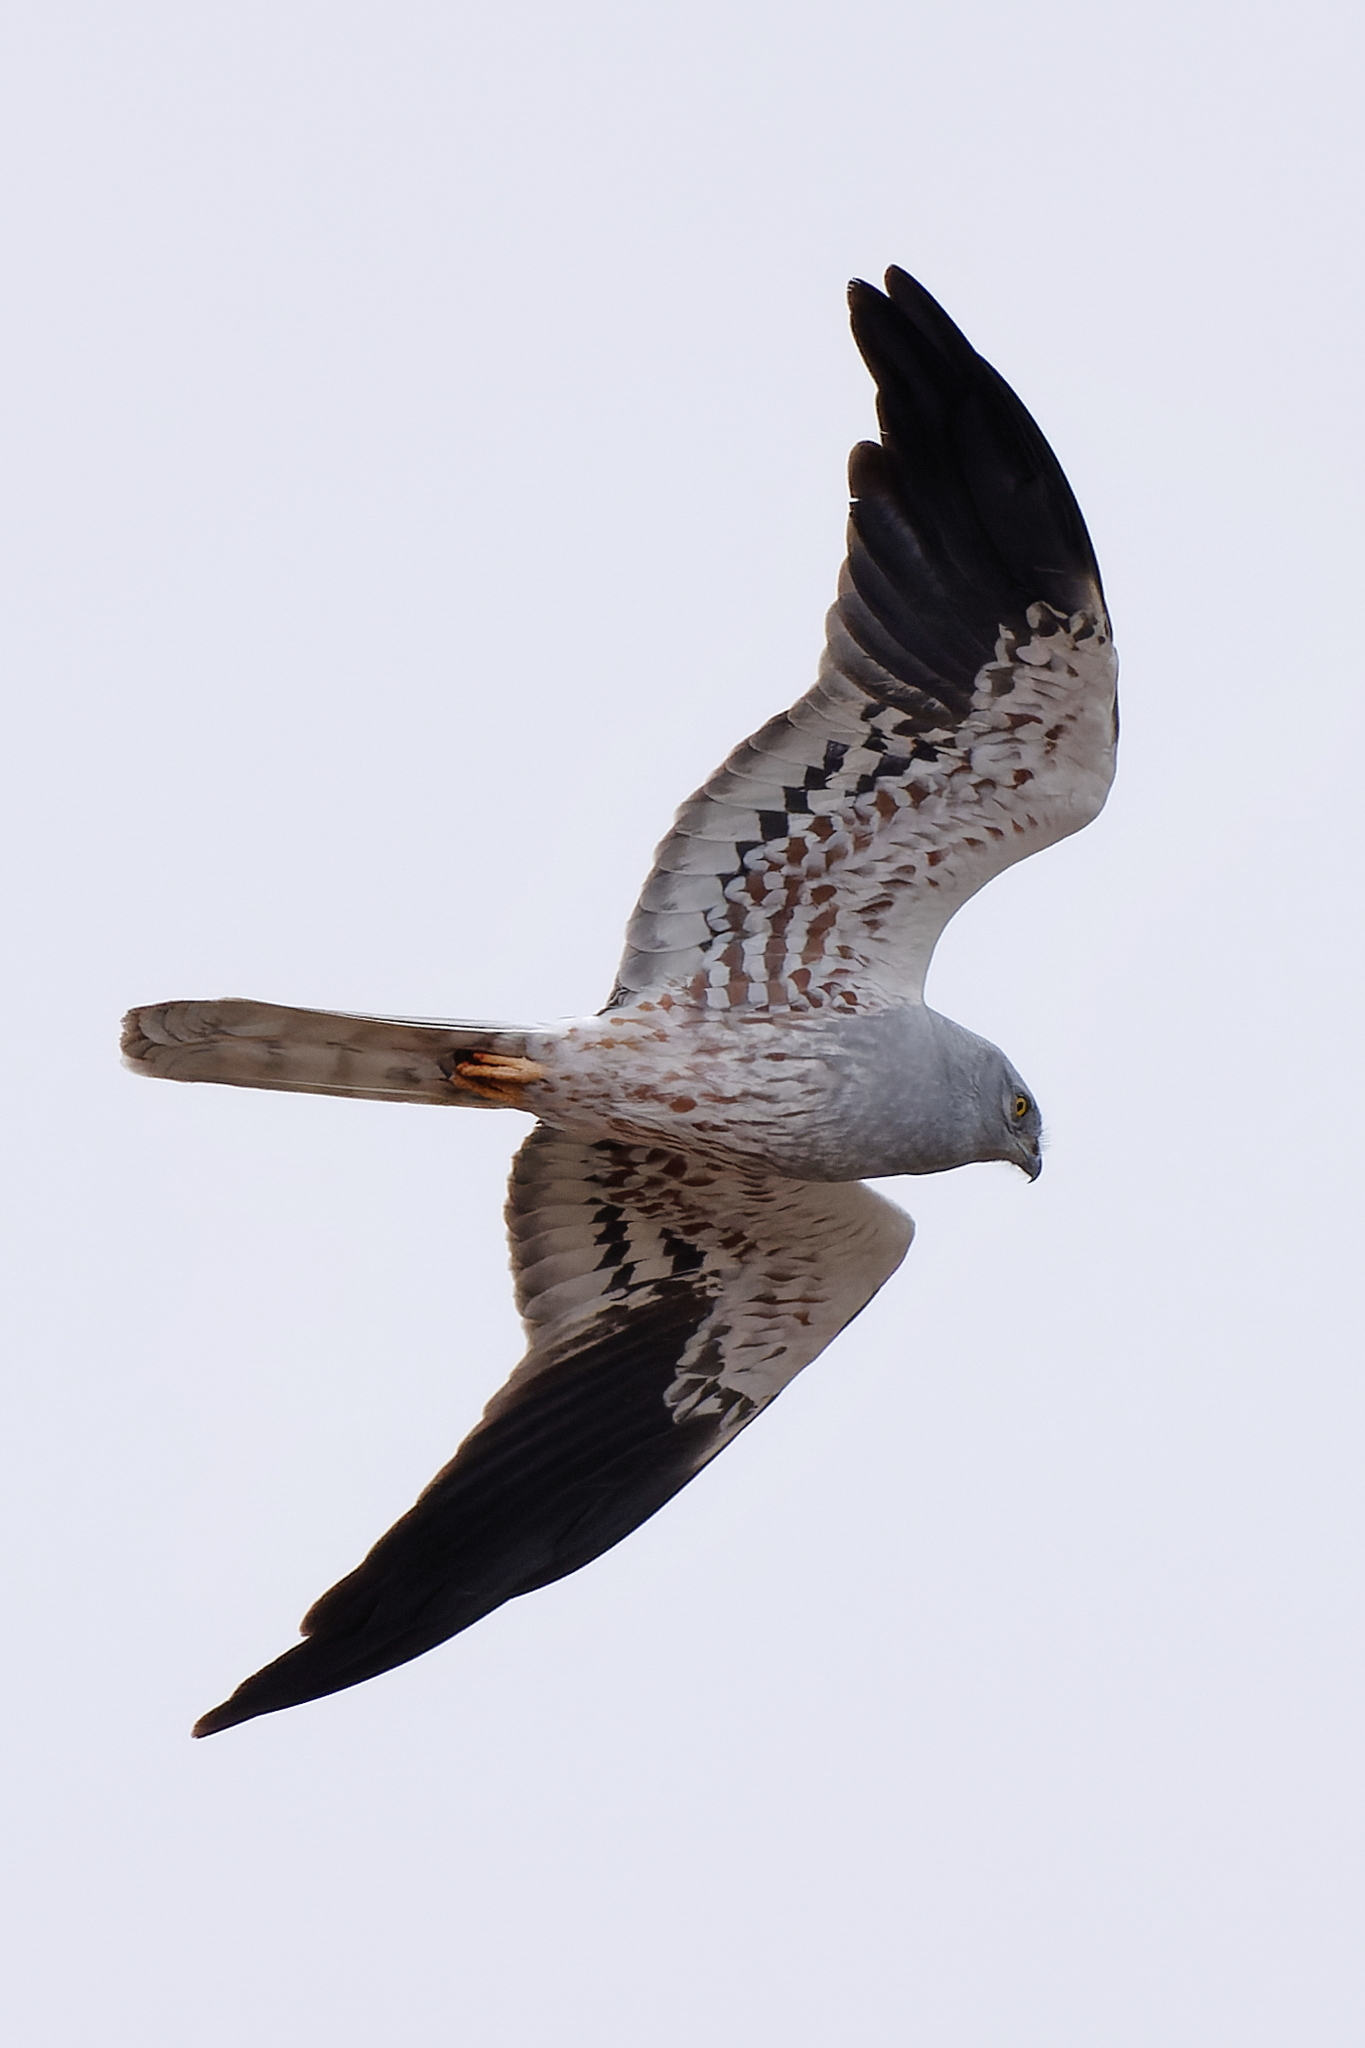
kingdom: Animalia
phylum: Chordata
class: Aves
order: Accipitriformes
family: Accipitridae
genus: Circus
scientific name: Circus pygargus
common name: Montagu's harrier
